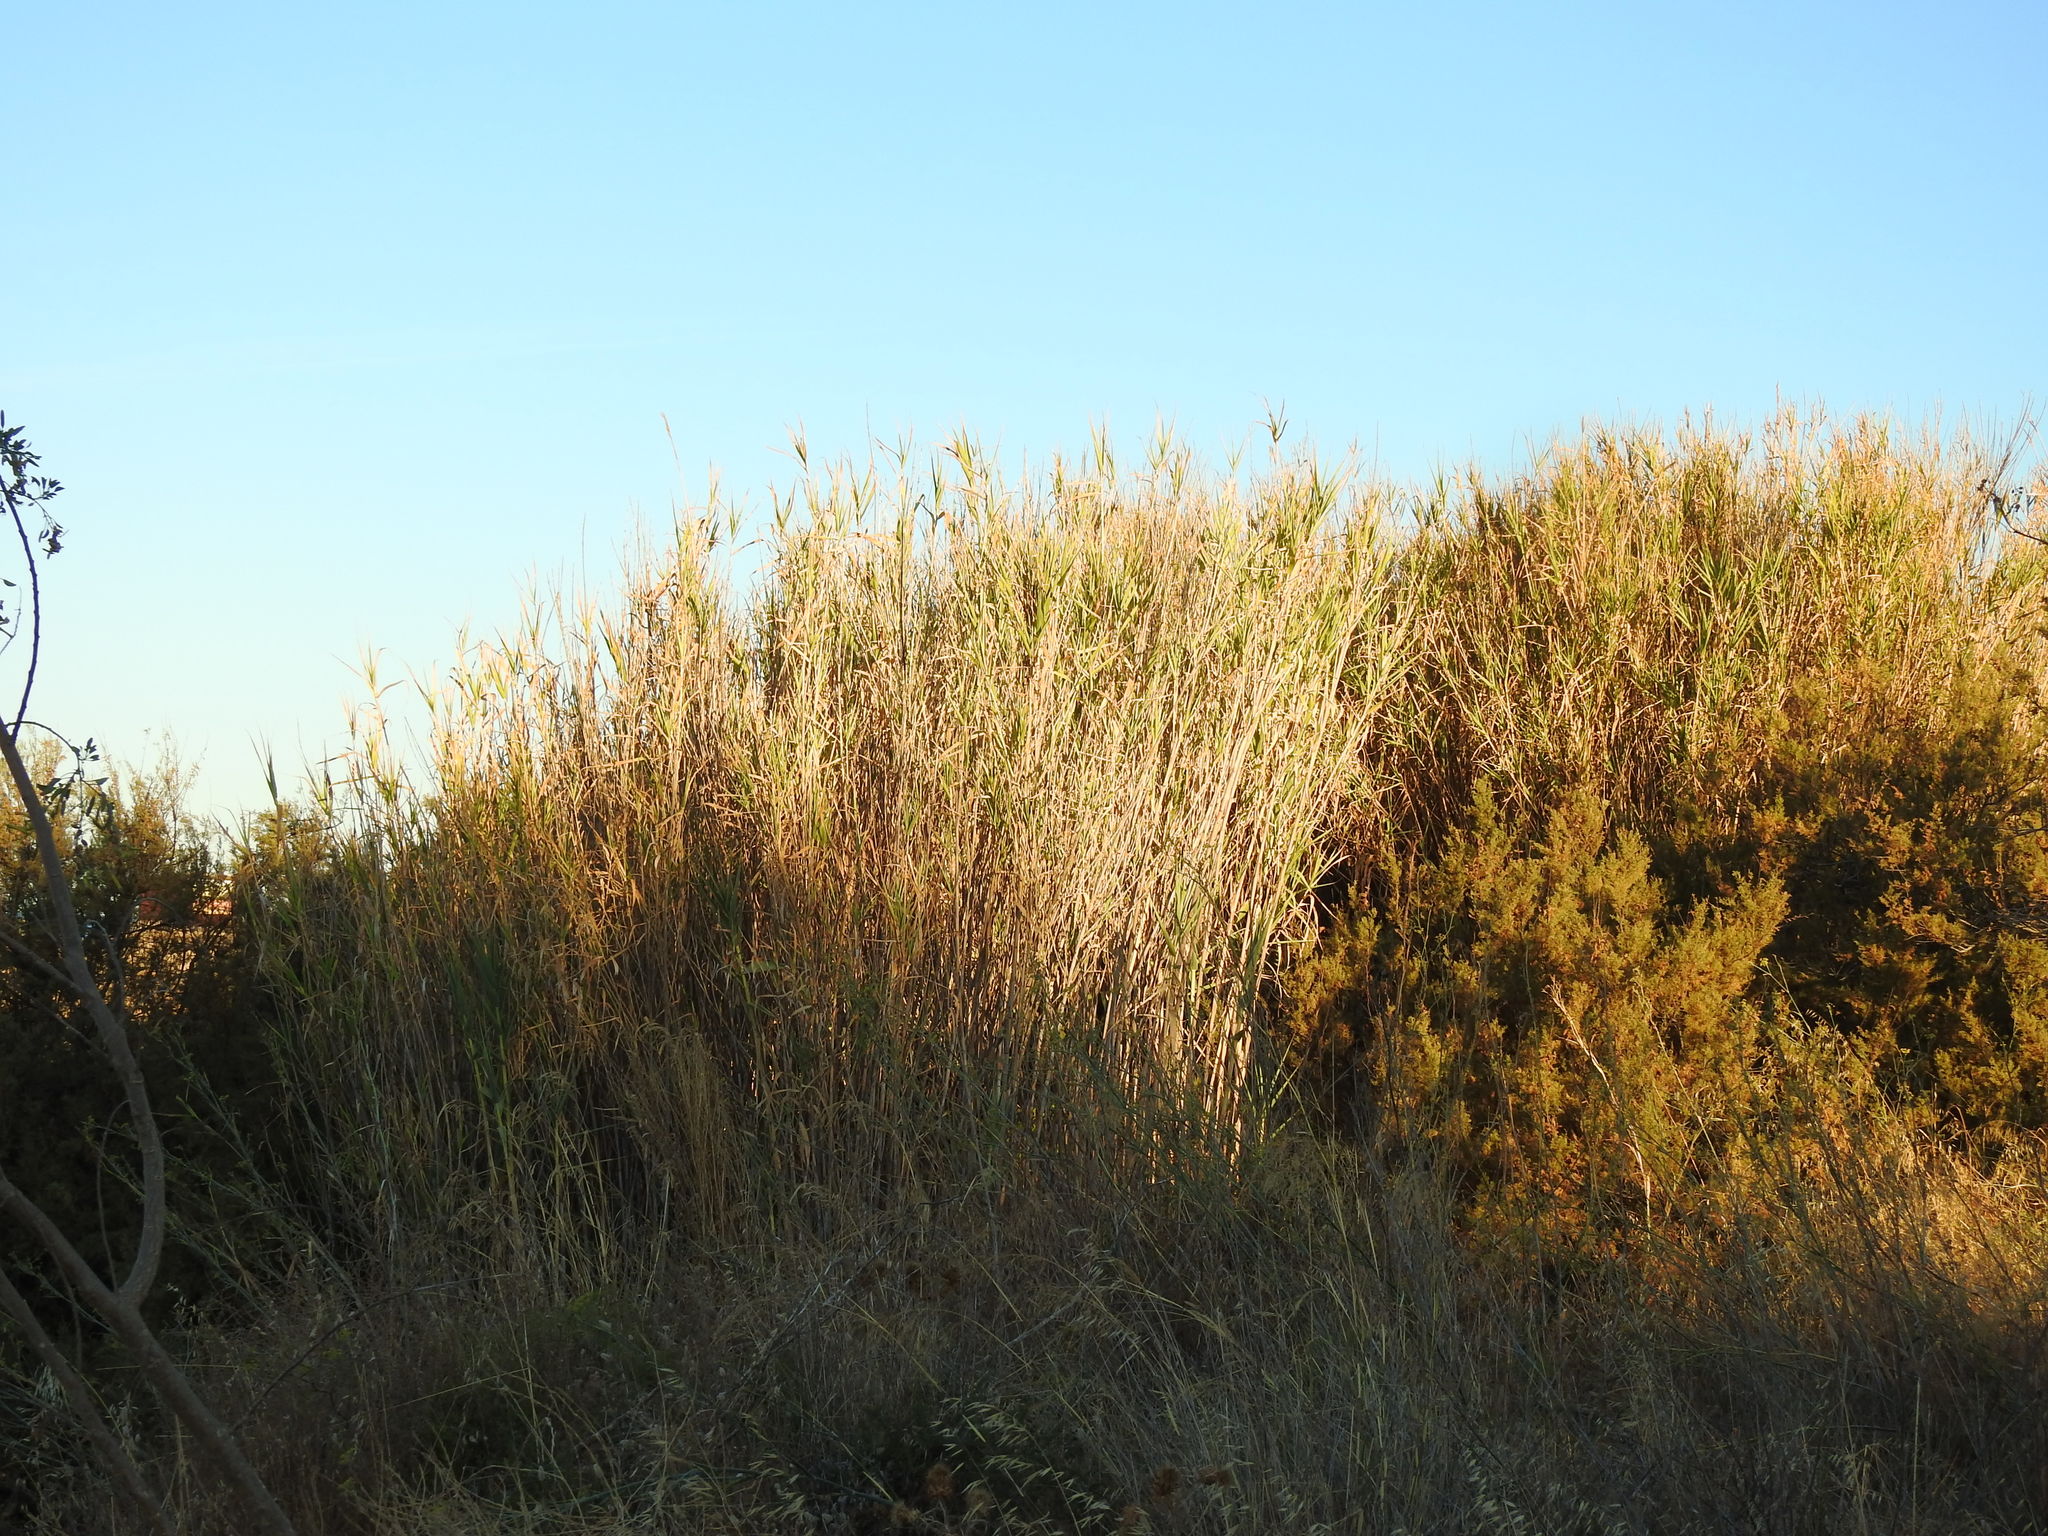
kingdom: Plantae
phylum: Tracheophyta
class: Liliopsida
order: Poales
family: Poaceae
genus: Arundo
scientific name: Arundo donax
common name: Giant reed
